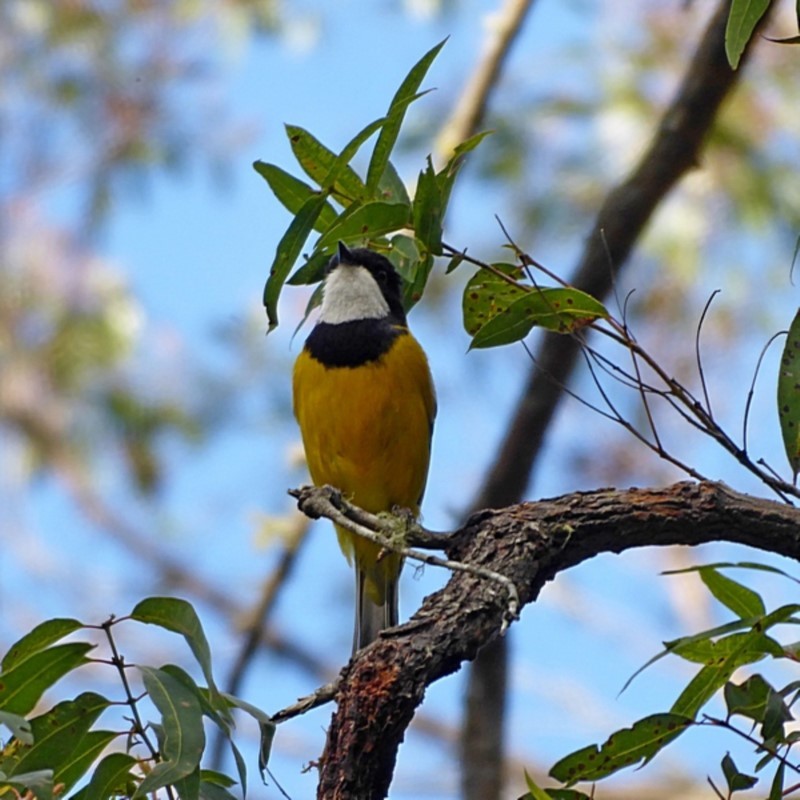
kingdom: Animalia
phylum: Chordata
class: Aves
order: Passeriformes
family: Pachycephalidae
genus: Pachycephala
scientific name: Pachycephala pectoralis
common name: Australian golden whistler
